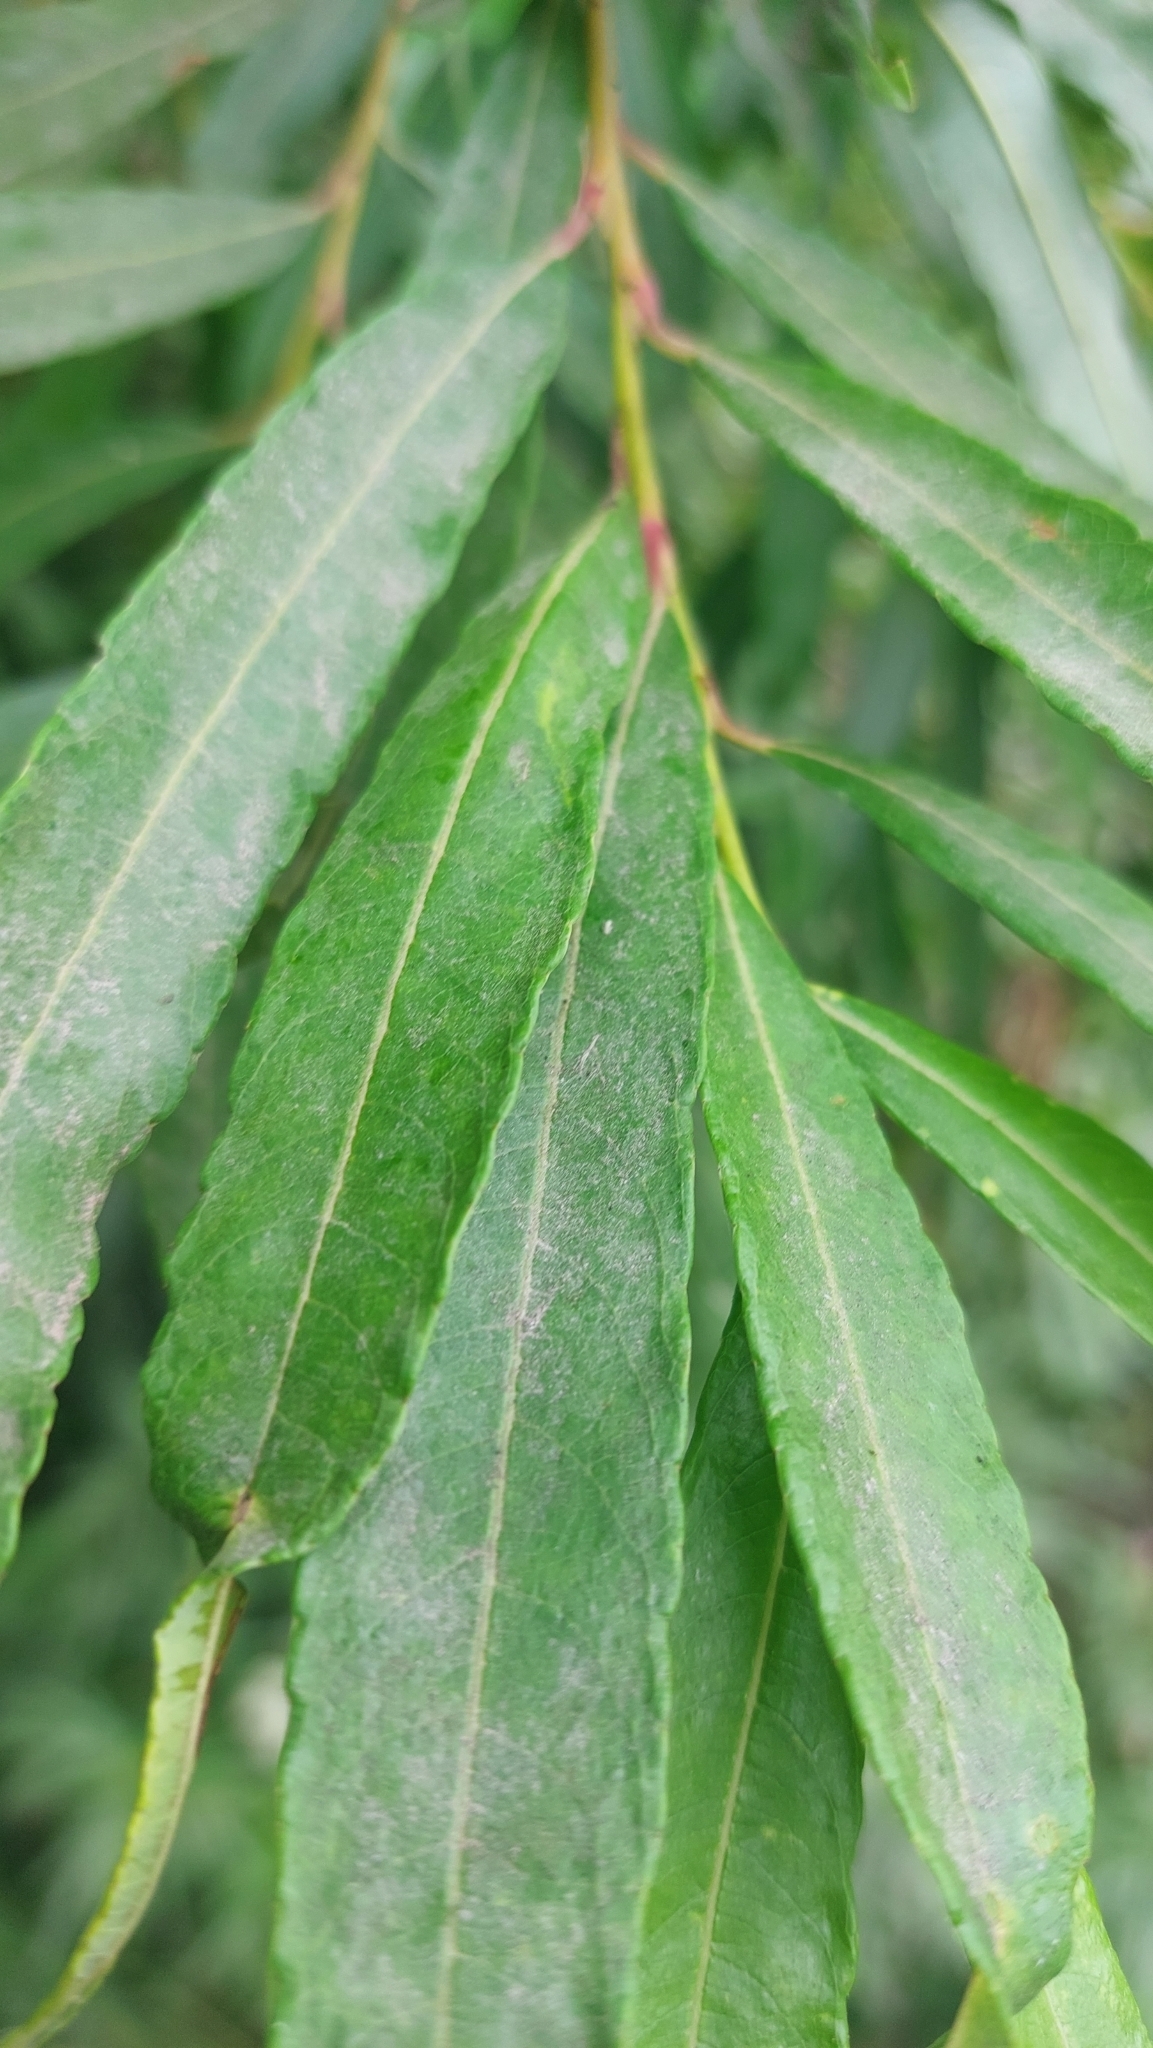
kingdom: Plantae
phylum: Tracheophyta
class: Magnoliopsida
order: Malpighiales
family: Salicaceae
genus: Salix
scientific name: Salix udensis
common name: Sachalin willow
